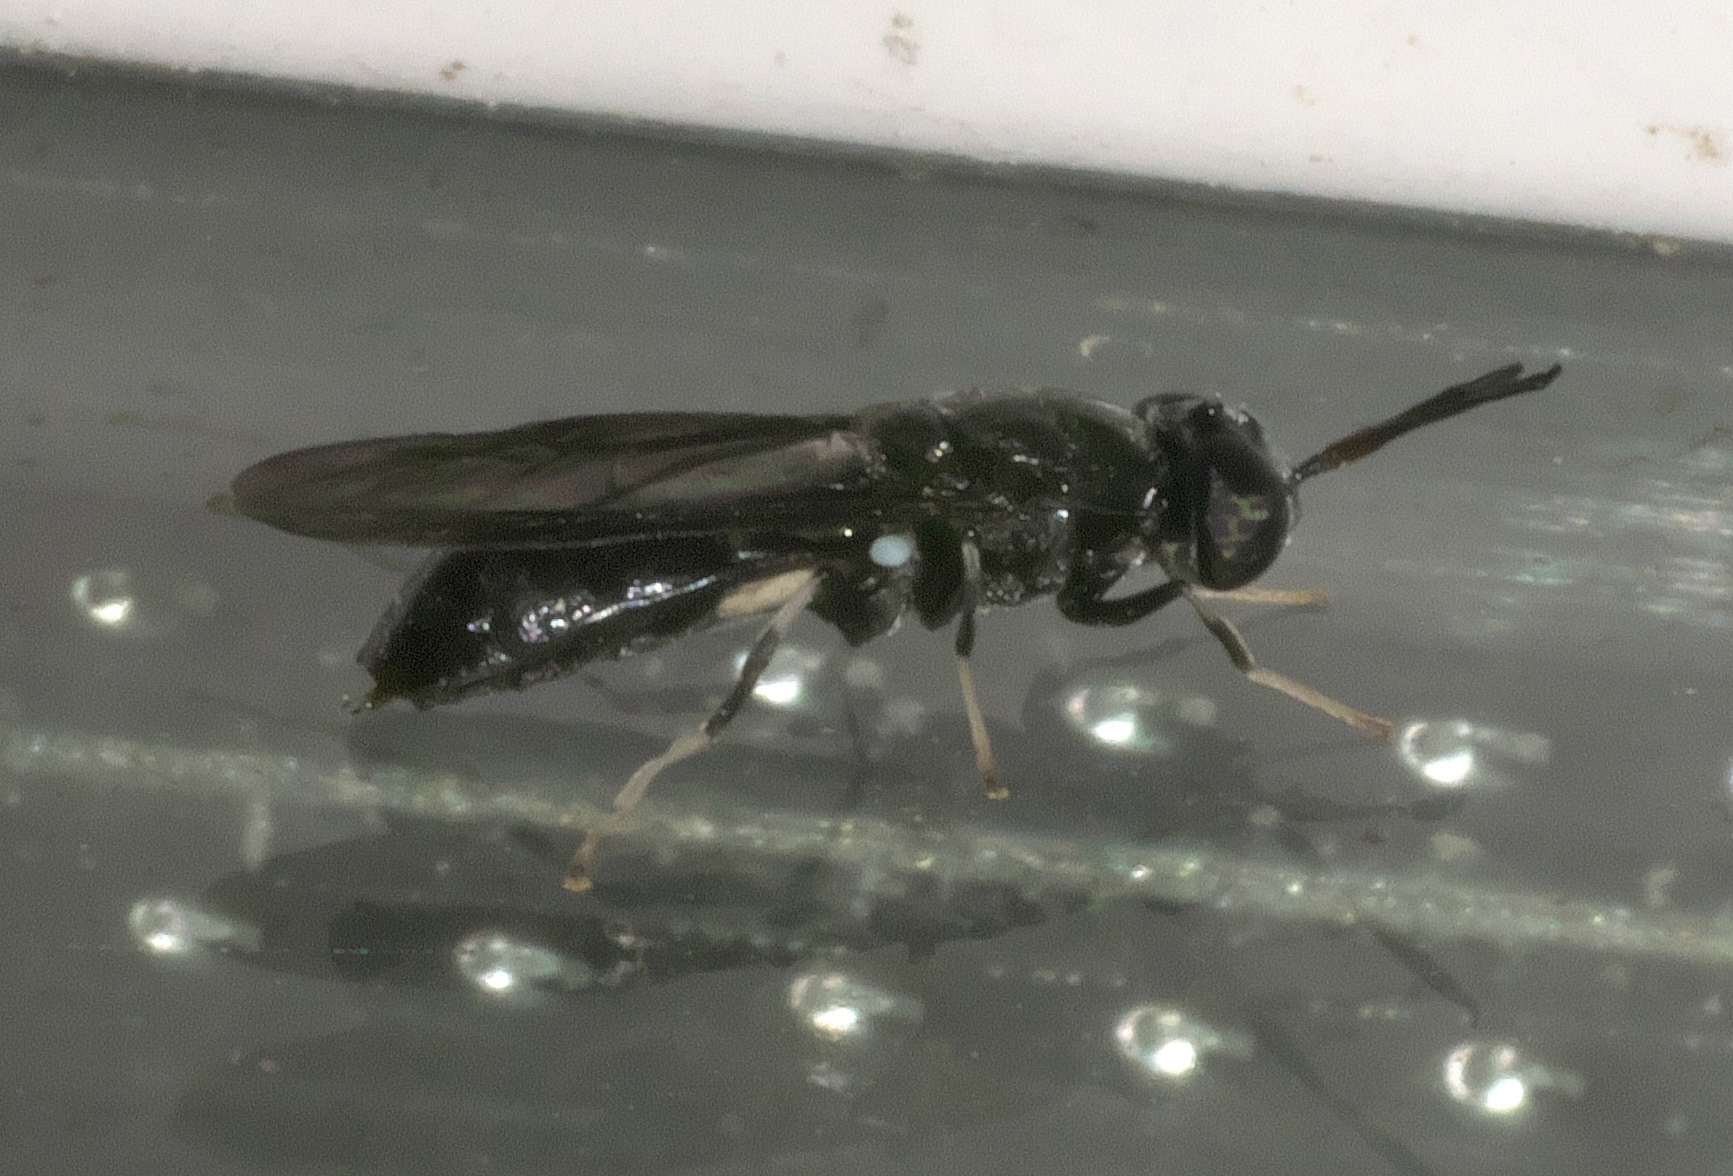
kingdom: Animalia
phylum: Arthropoda
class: Insecta
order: Diptera
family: Stratiomyidae
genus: Hermetia
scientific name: Hermetia illucens
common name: Black soldier fly
